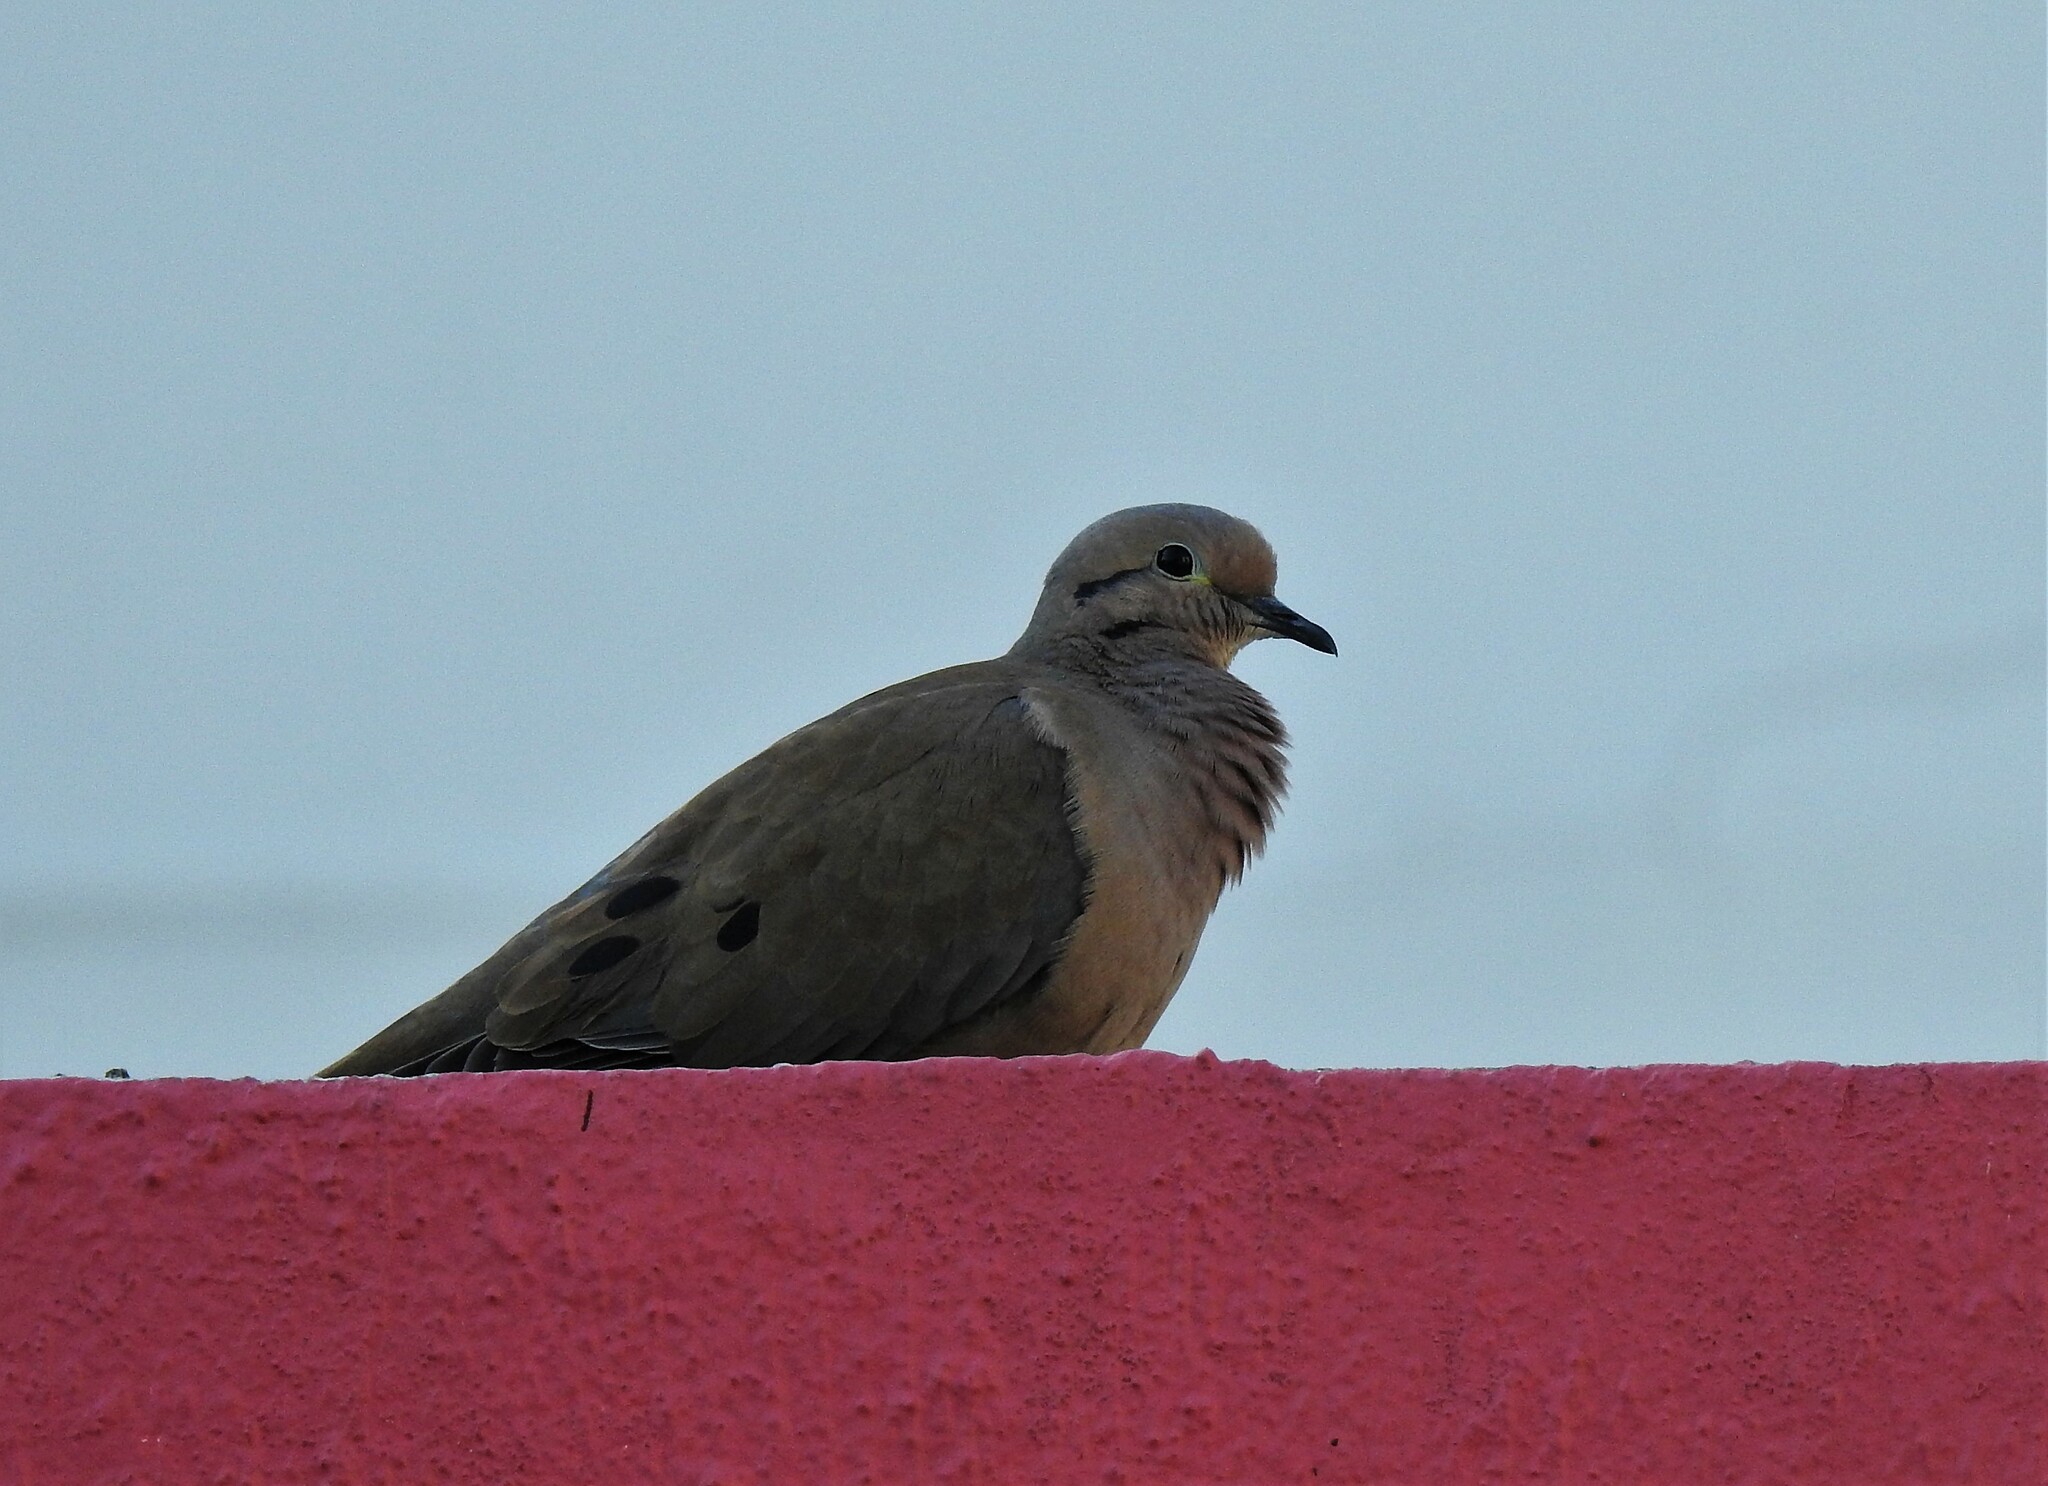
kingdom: Animalia
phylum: Chordata
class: Aves
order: Columbiformes
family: Columbidae
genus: Zenaida
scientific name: Zenaida auriculata
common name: Eared dove
